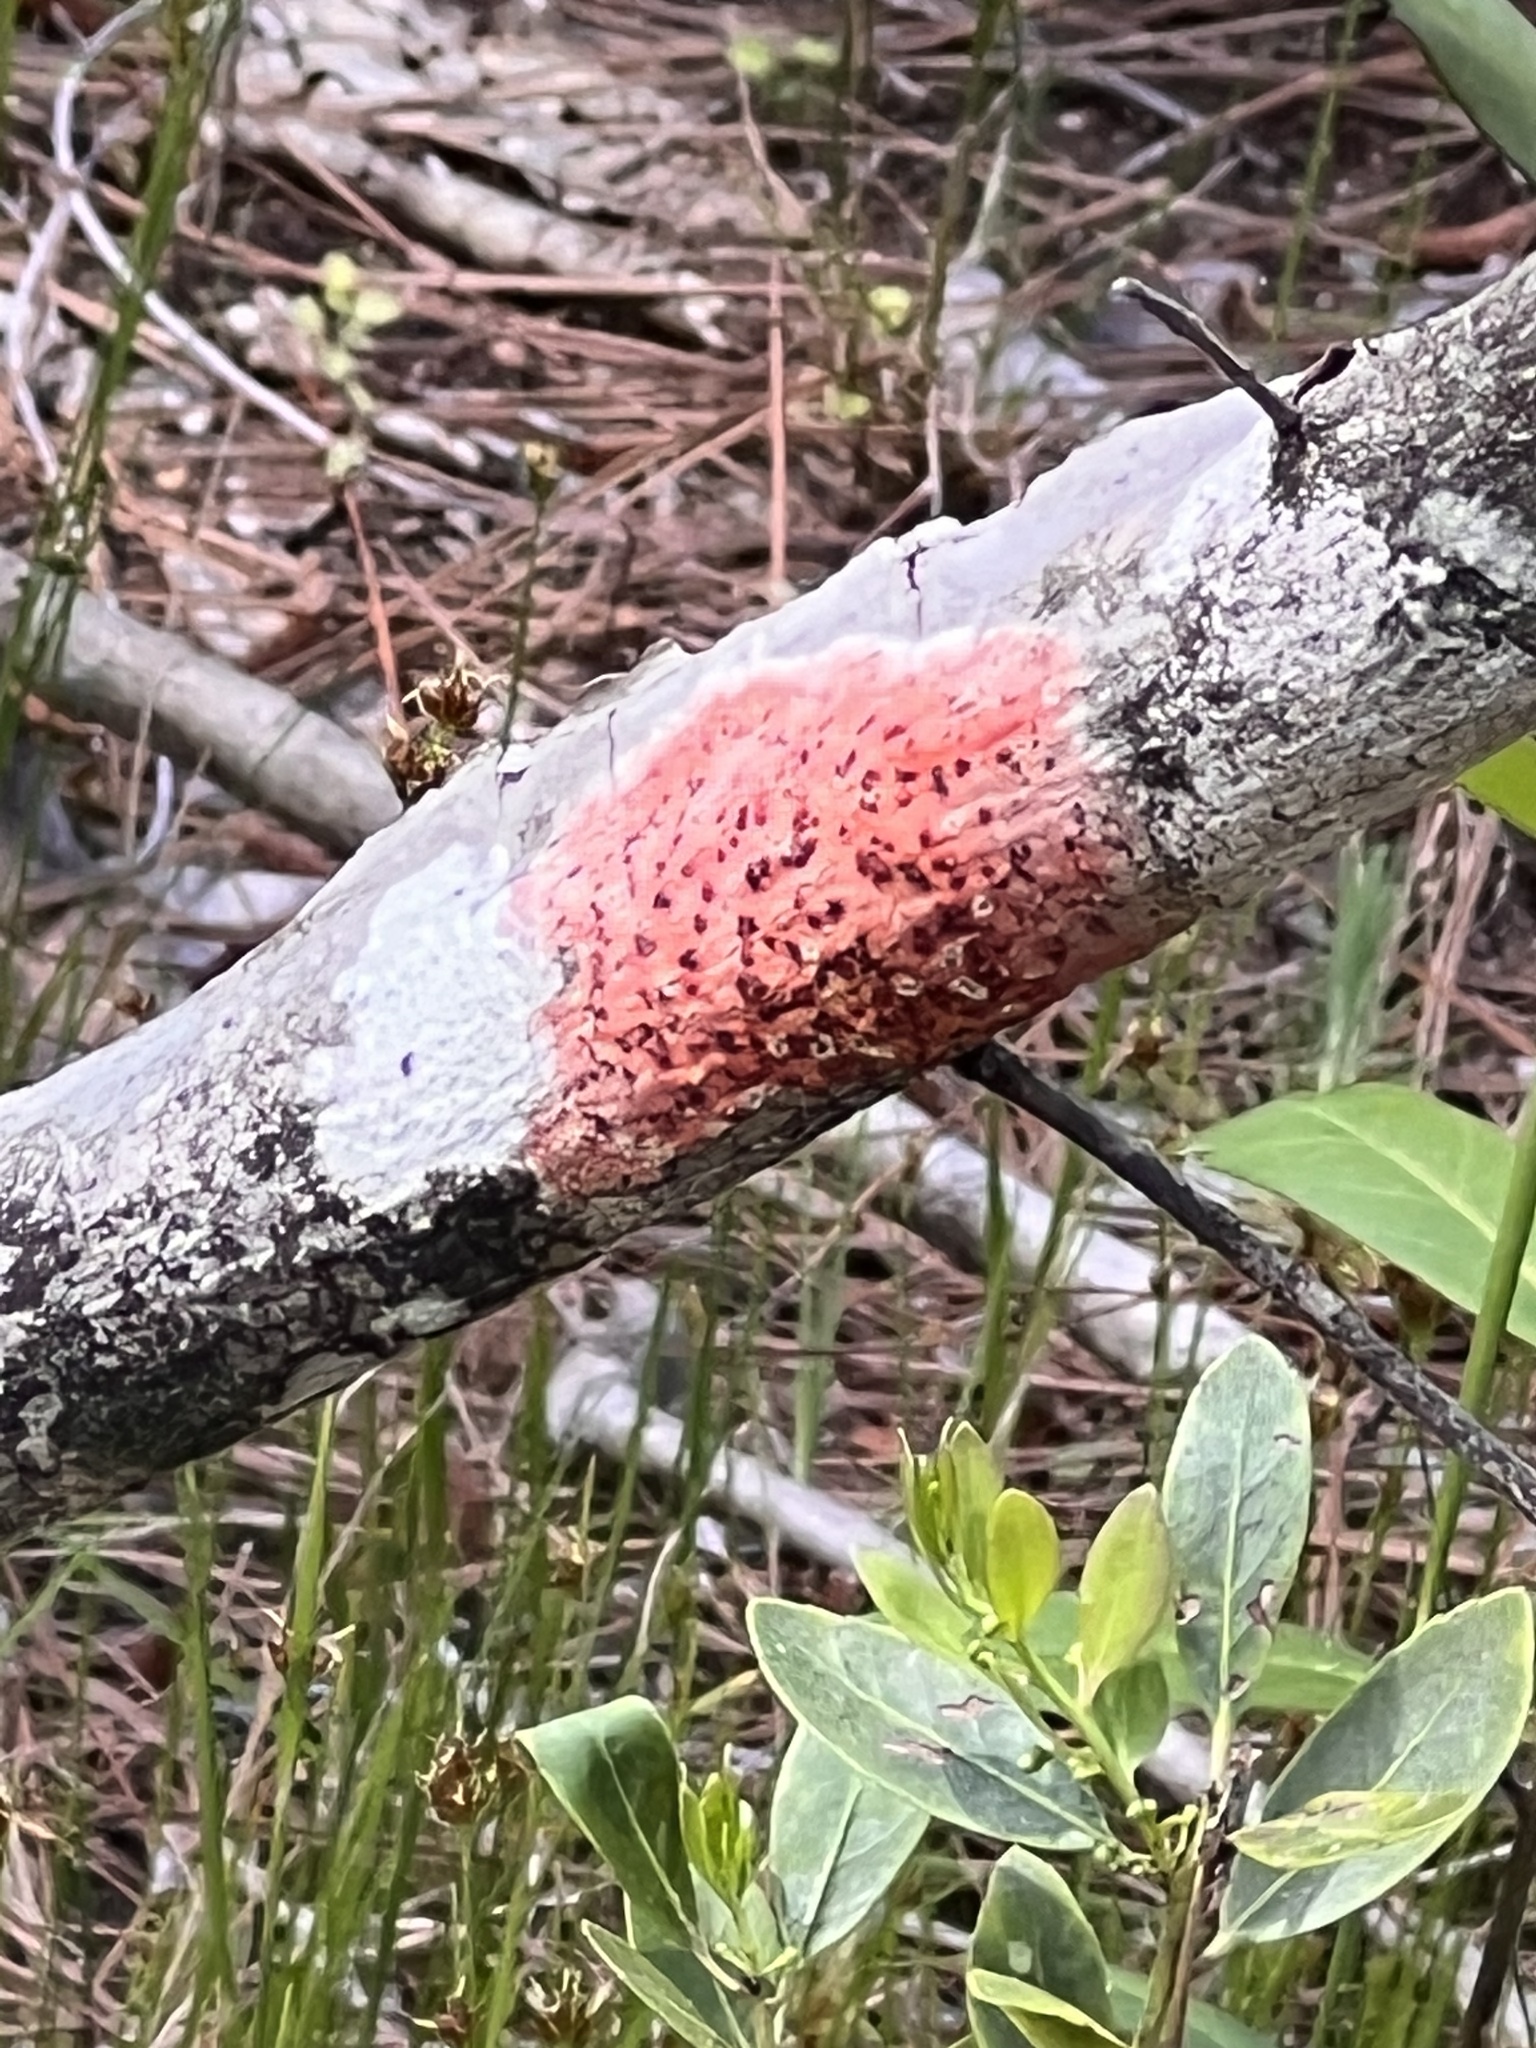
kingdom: Fungi
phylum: Ascomycota
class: Eurotiomycetes
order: Pyrenulales
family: Pyrenulaceae
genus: Pyrenula
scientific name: Pyrenula cruenta
